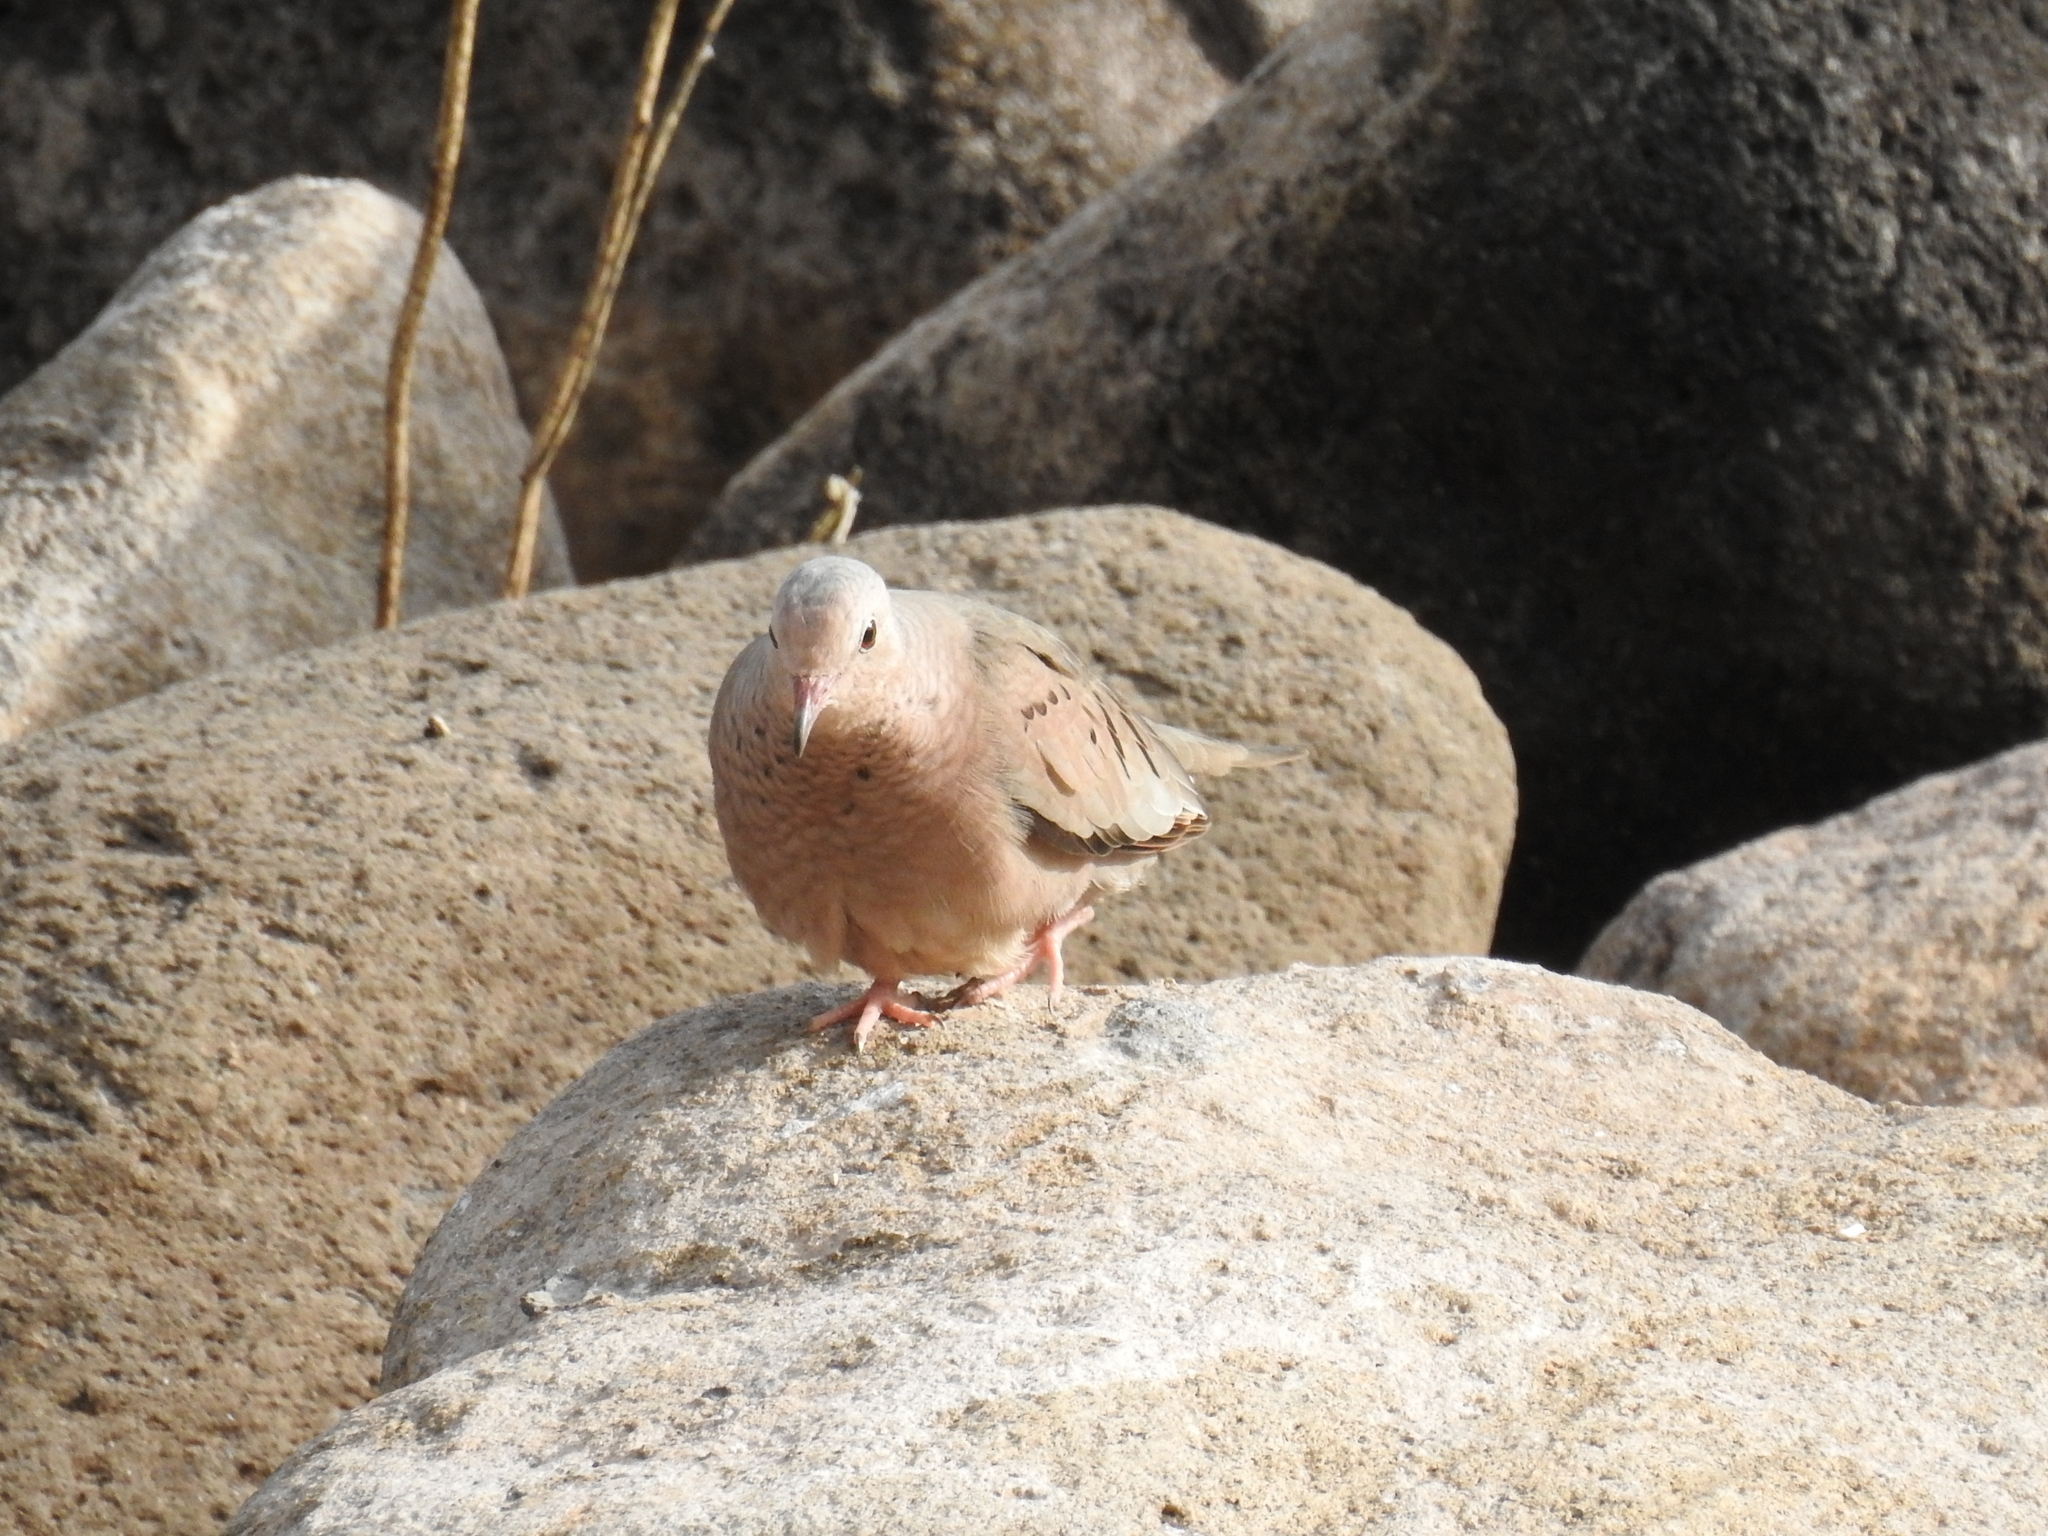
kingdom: Animalia
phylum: Chordata
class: Aves
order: Columbiformes
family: Columbidae
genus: Columbina
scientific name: Columbina passerina
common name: Common ground-dove
